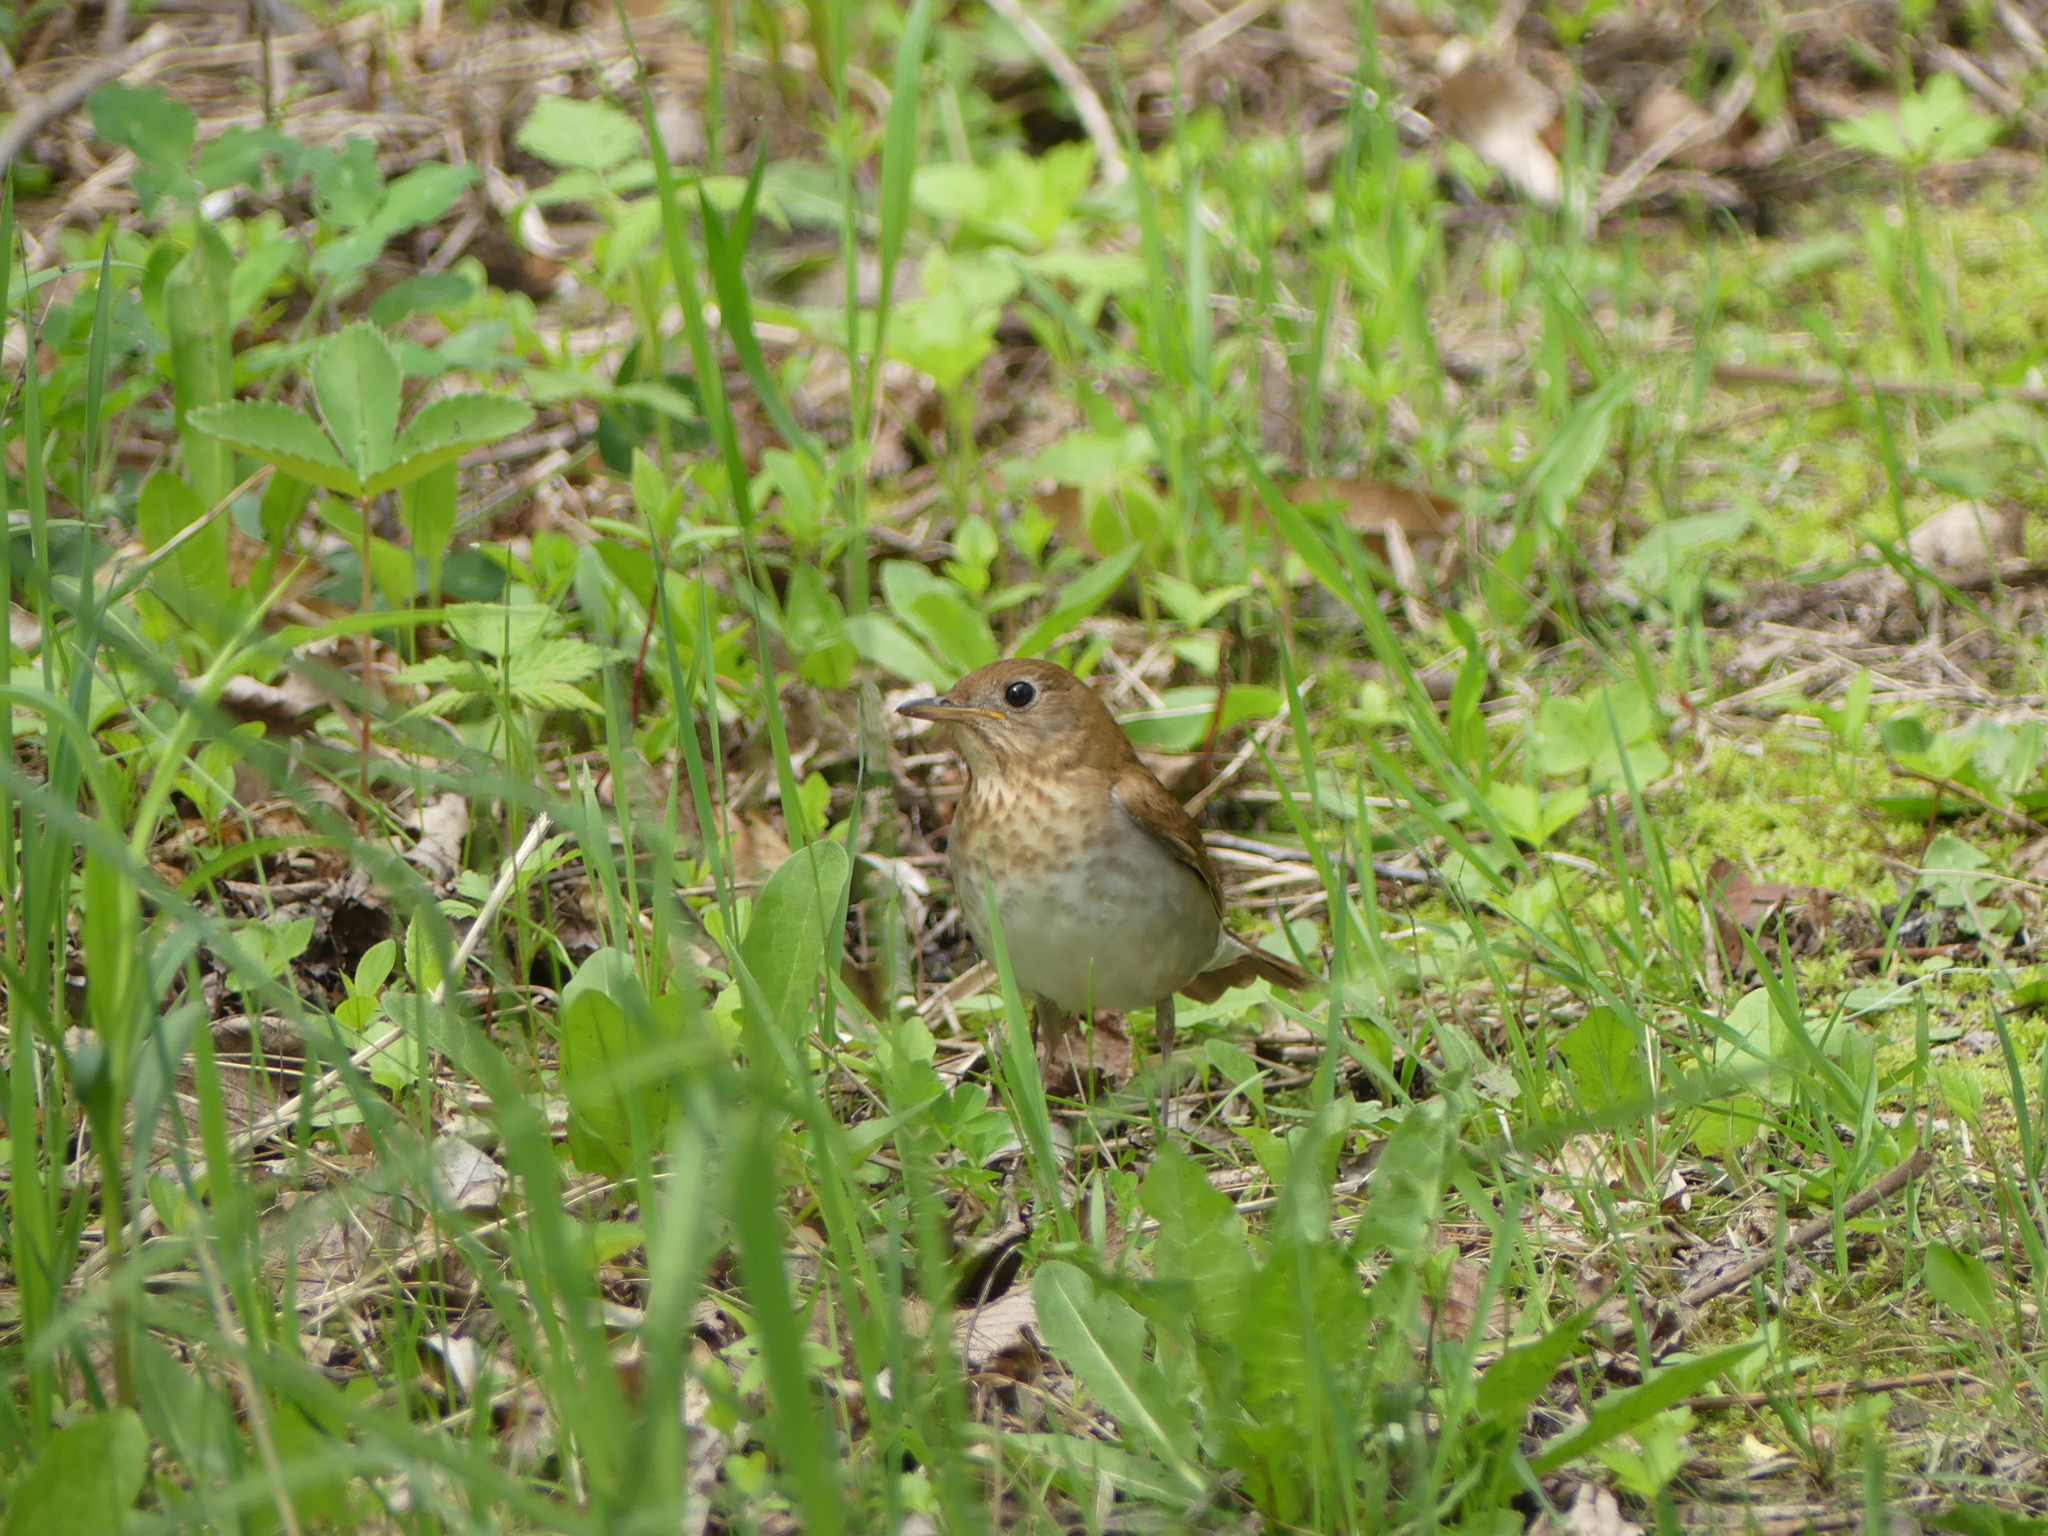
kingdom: Animalia
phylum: Chordata
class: Aves
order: Passeriformes
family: Turdidae
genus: Catharus
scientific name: Catharus fuscescens
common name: Veery
